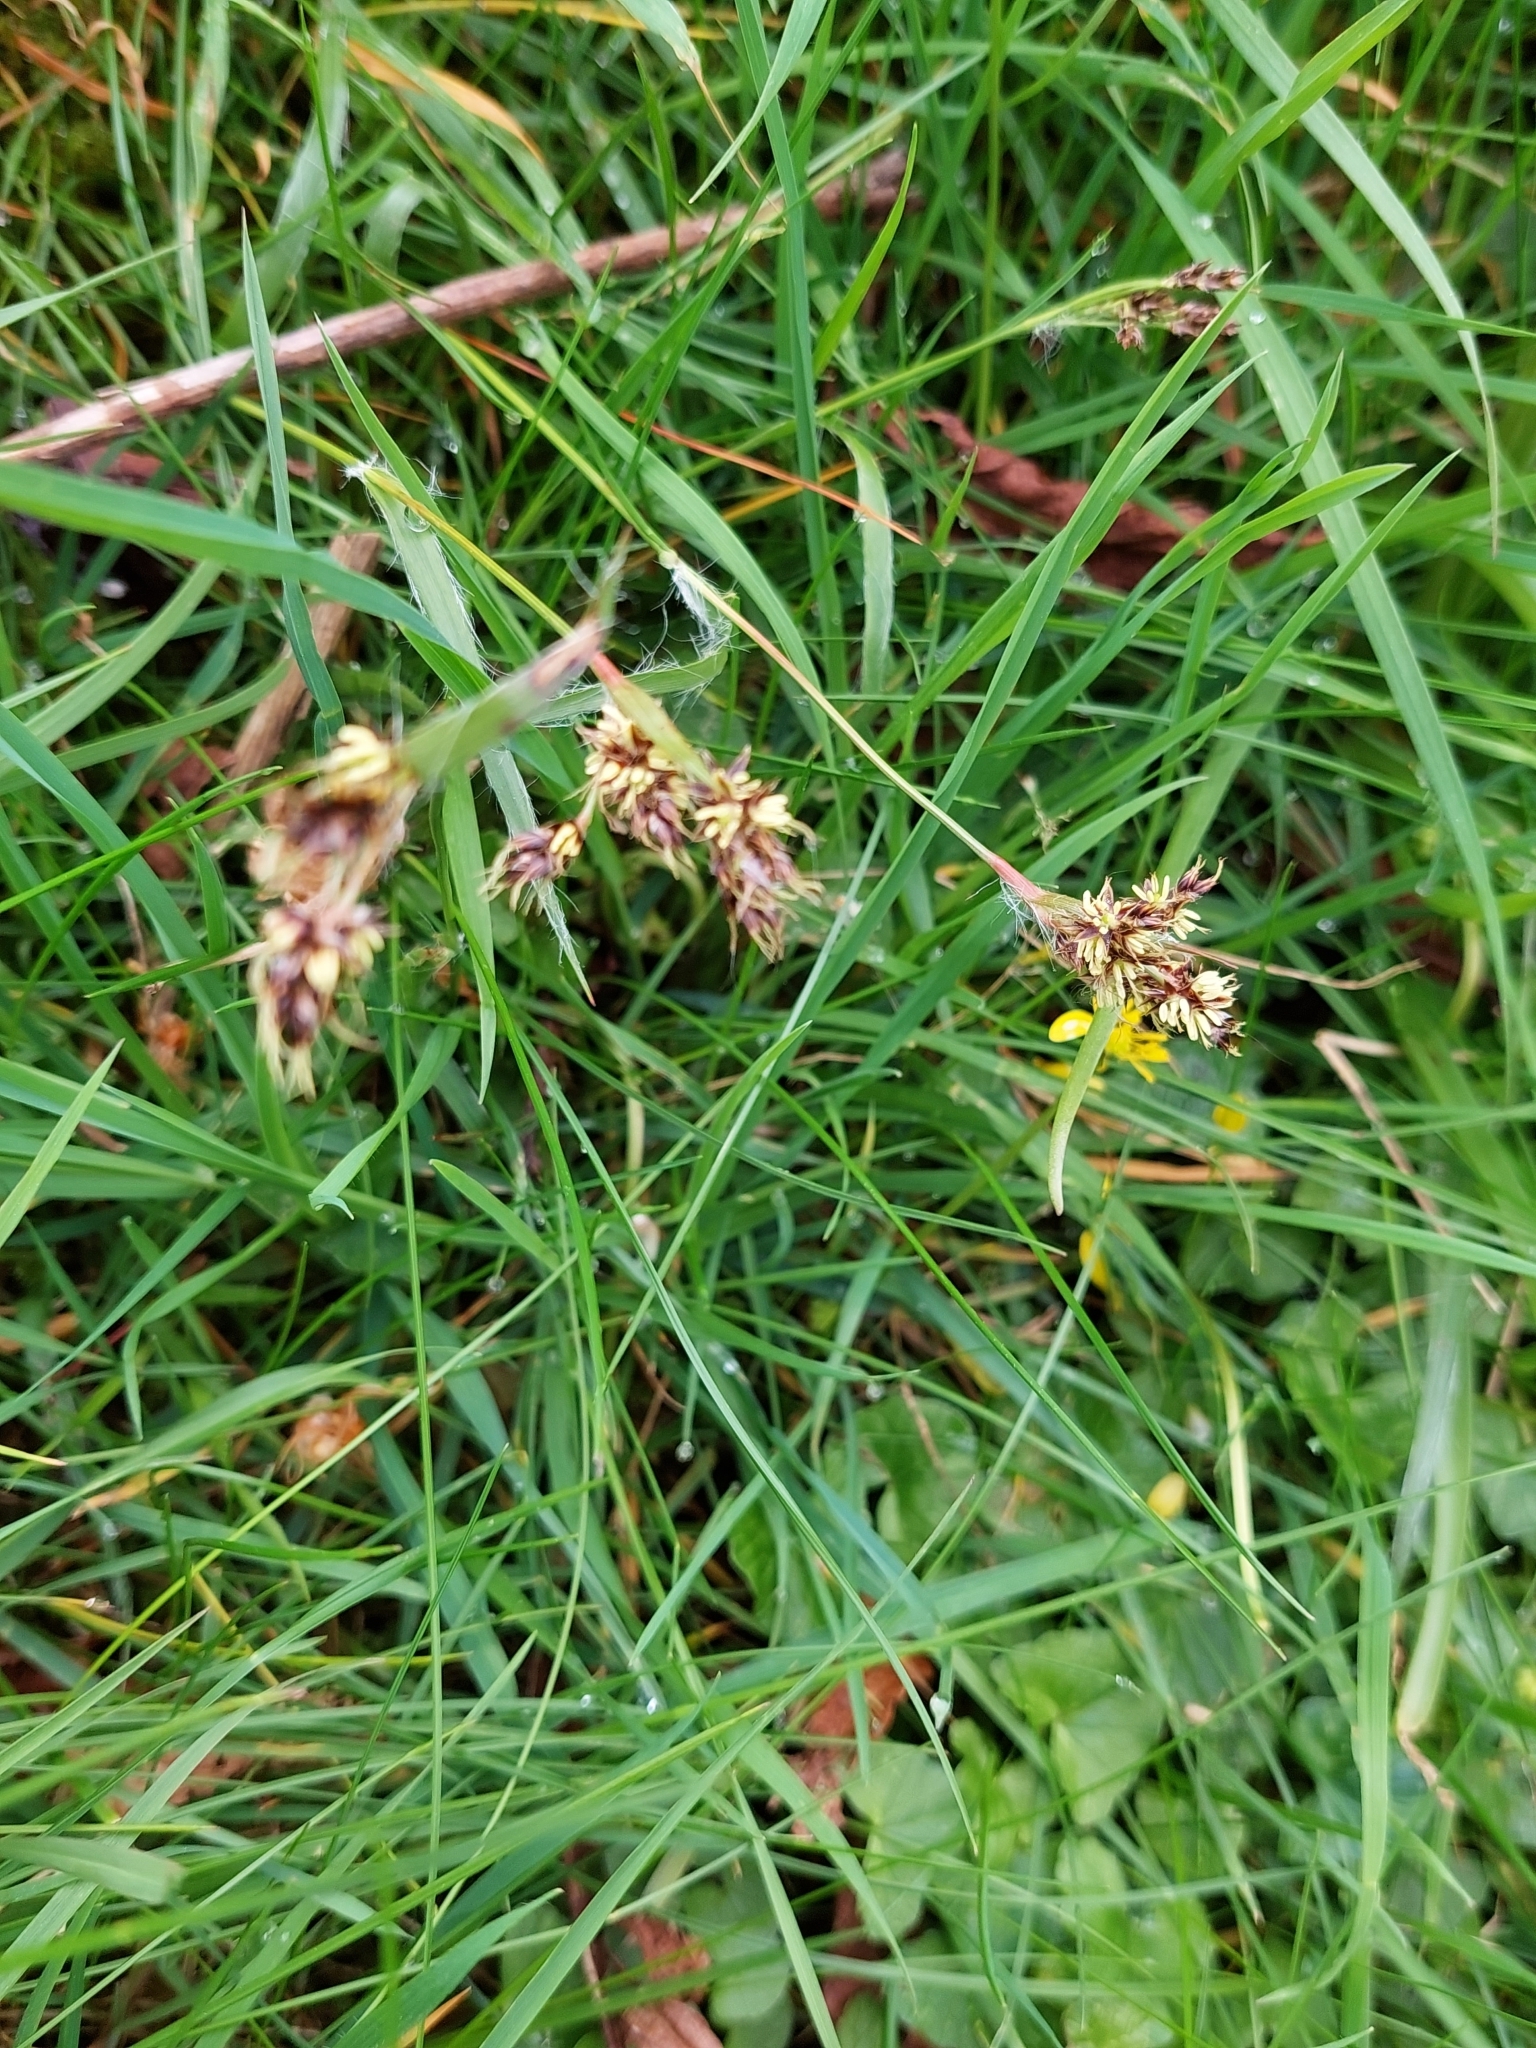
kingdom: Plantae
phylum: Tracheophyta
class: Liliopsida
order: Poales
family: Juncaceae
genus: Luzula
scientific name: Luzula campestris
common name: Field wood-rush
